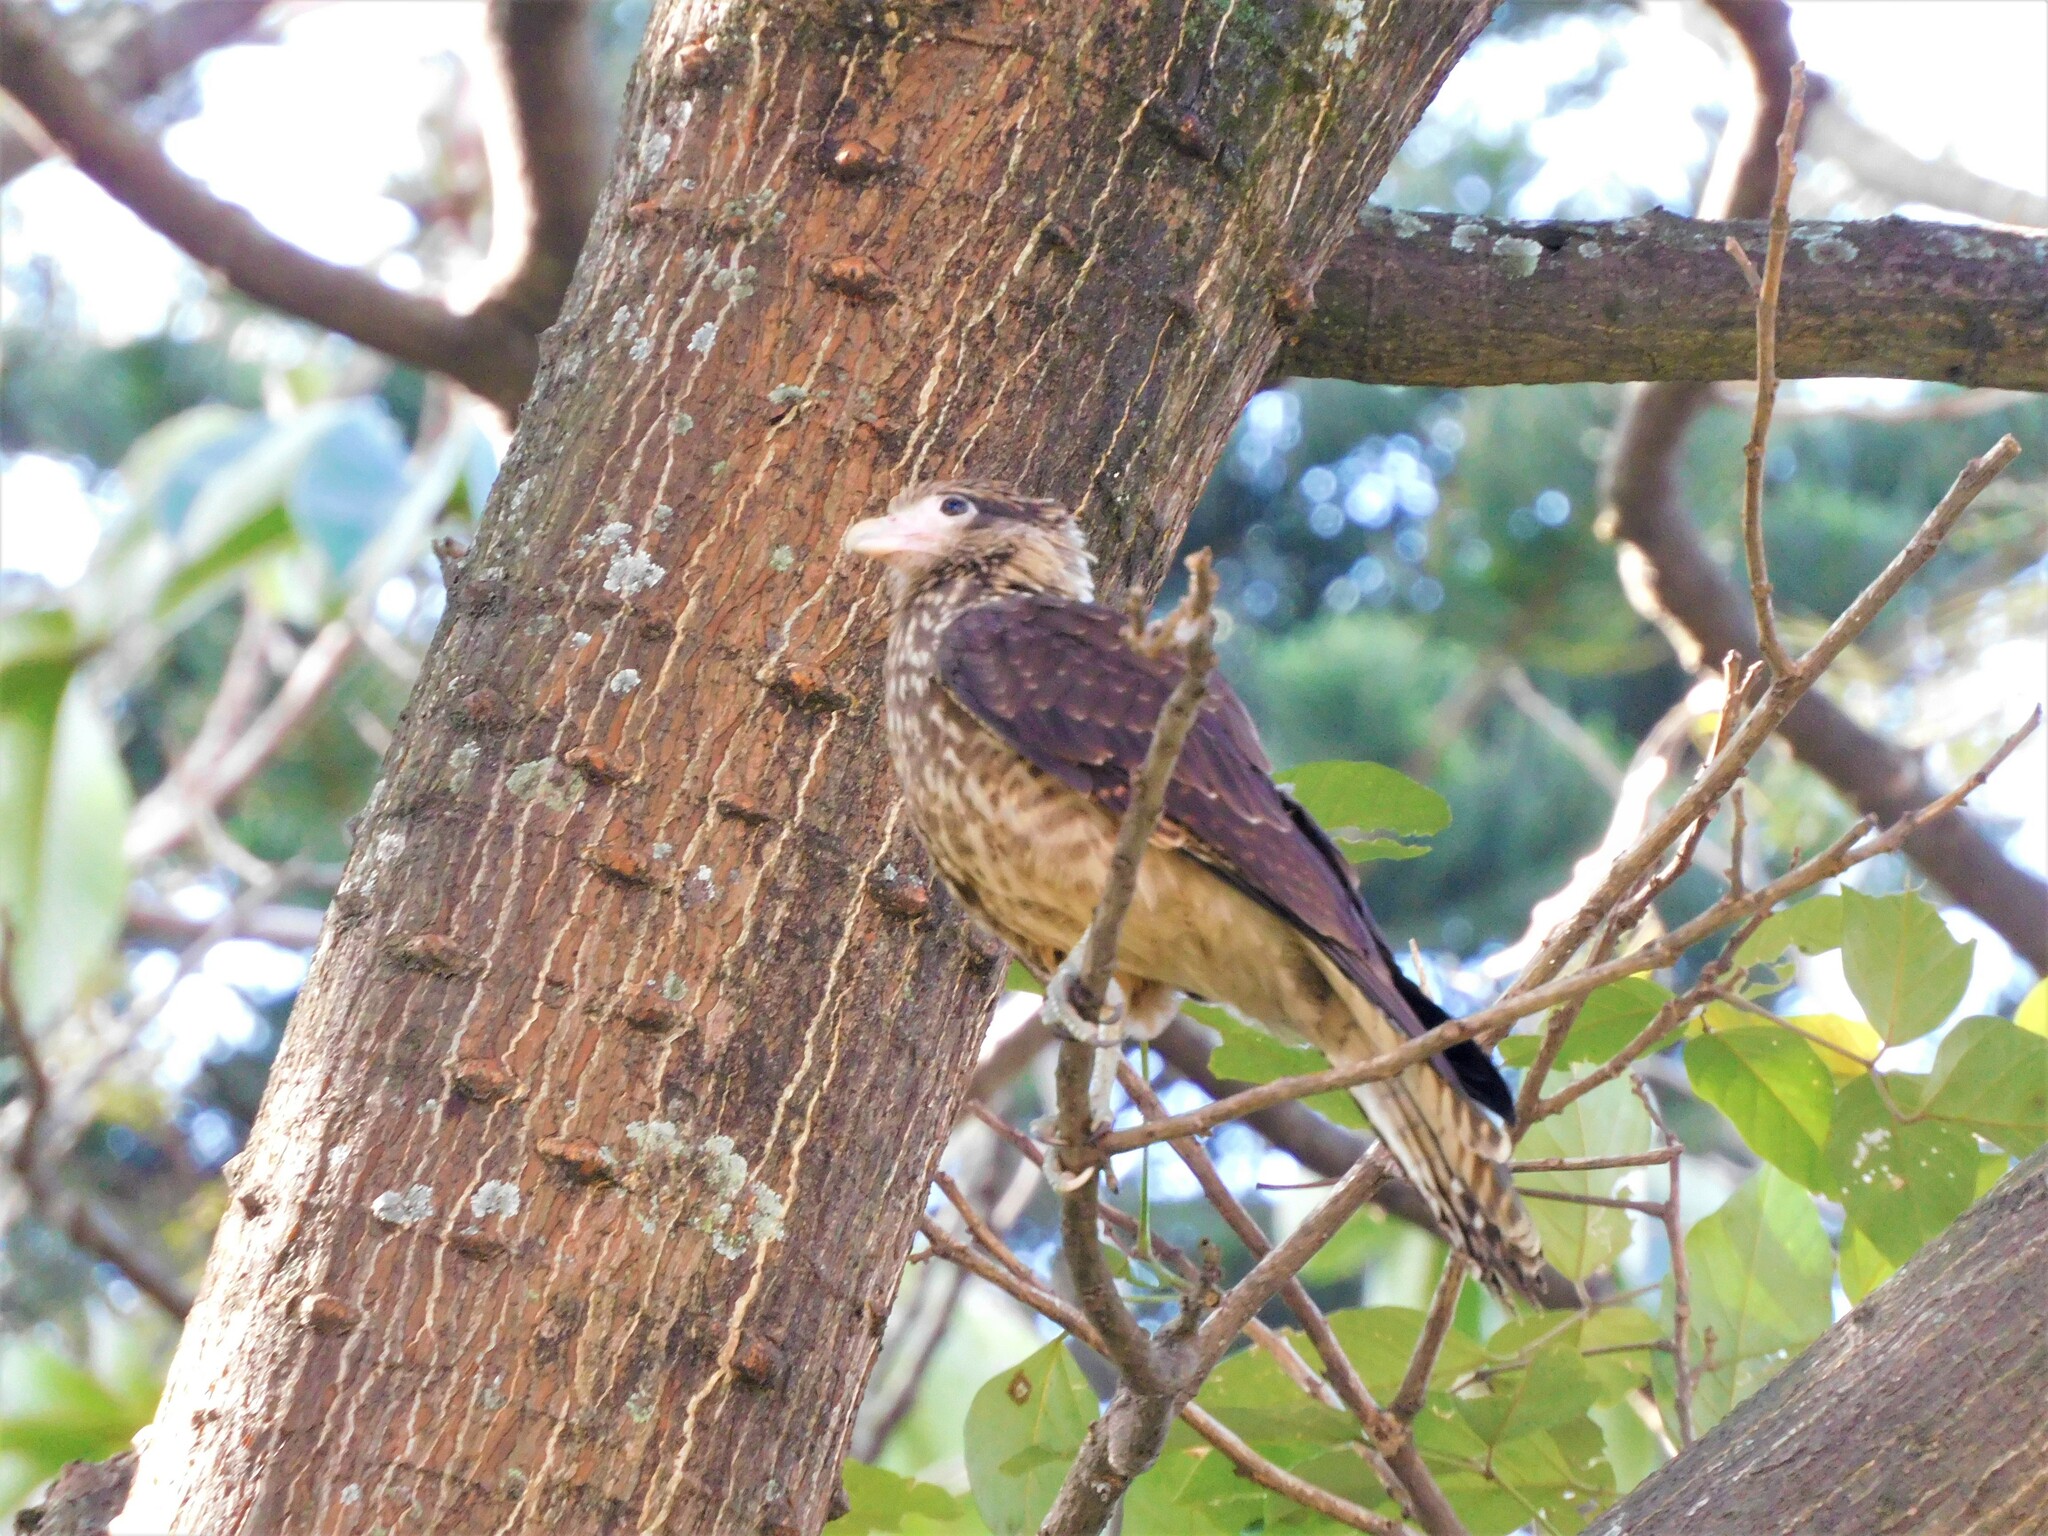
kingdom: Animalia
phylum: Chordata
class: Aves
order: Falconiformes
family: Falconidae
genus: Daptrius
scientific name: Daptrius
